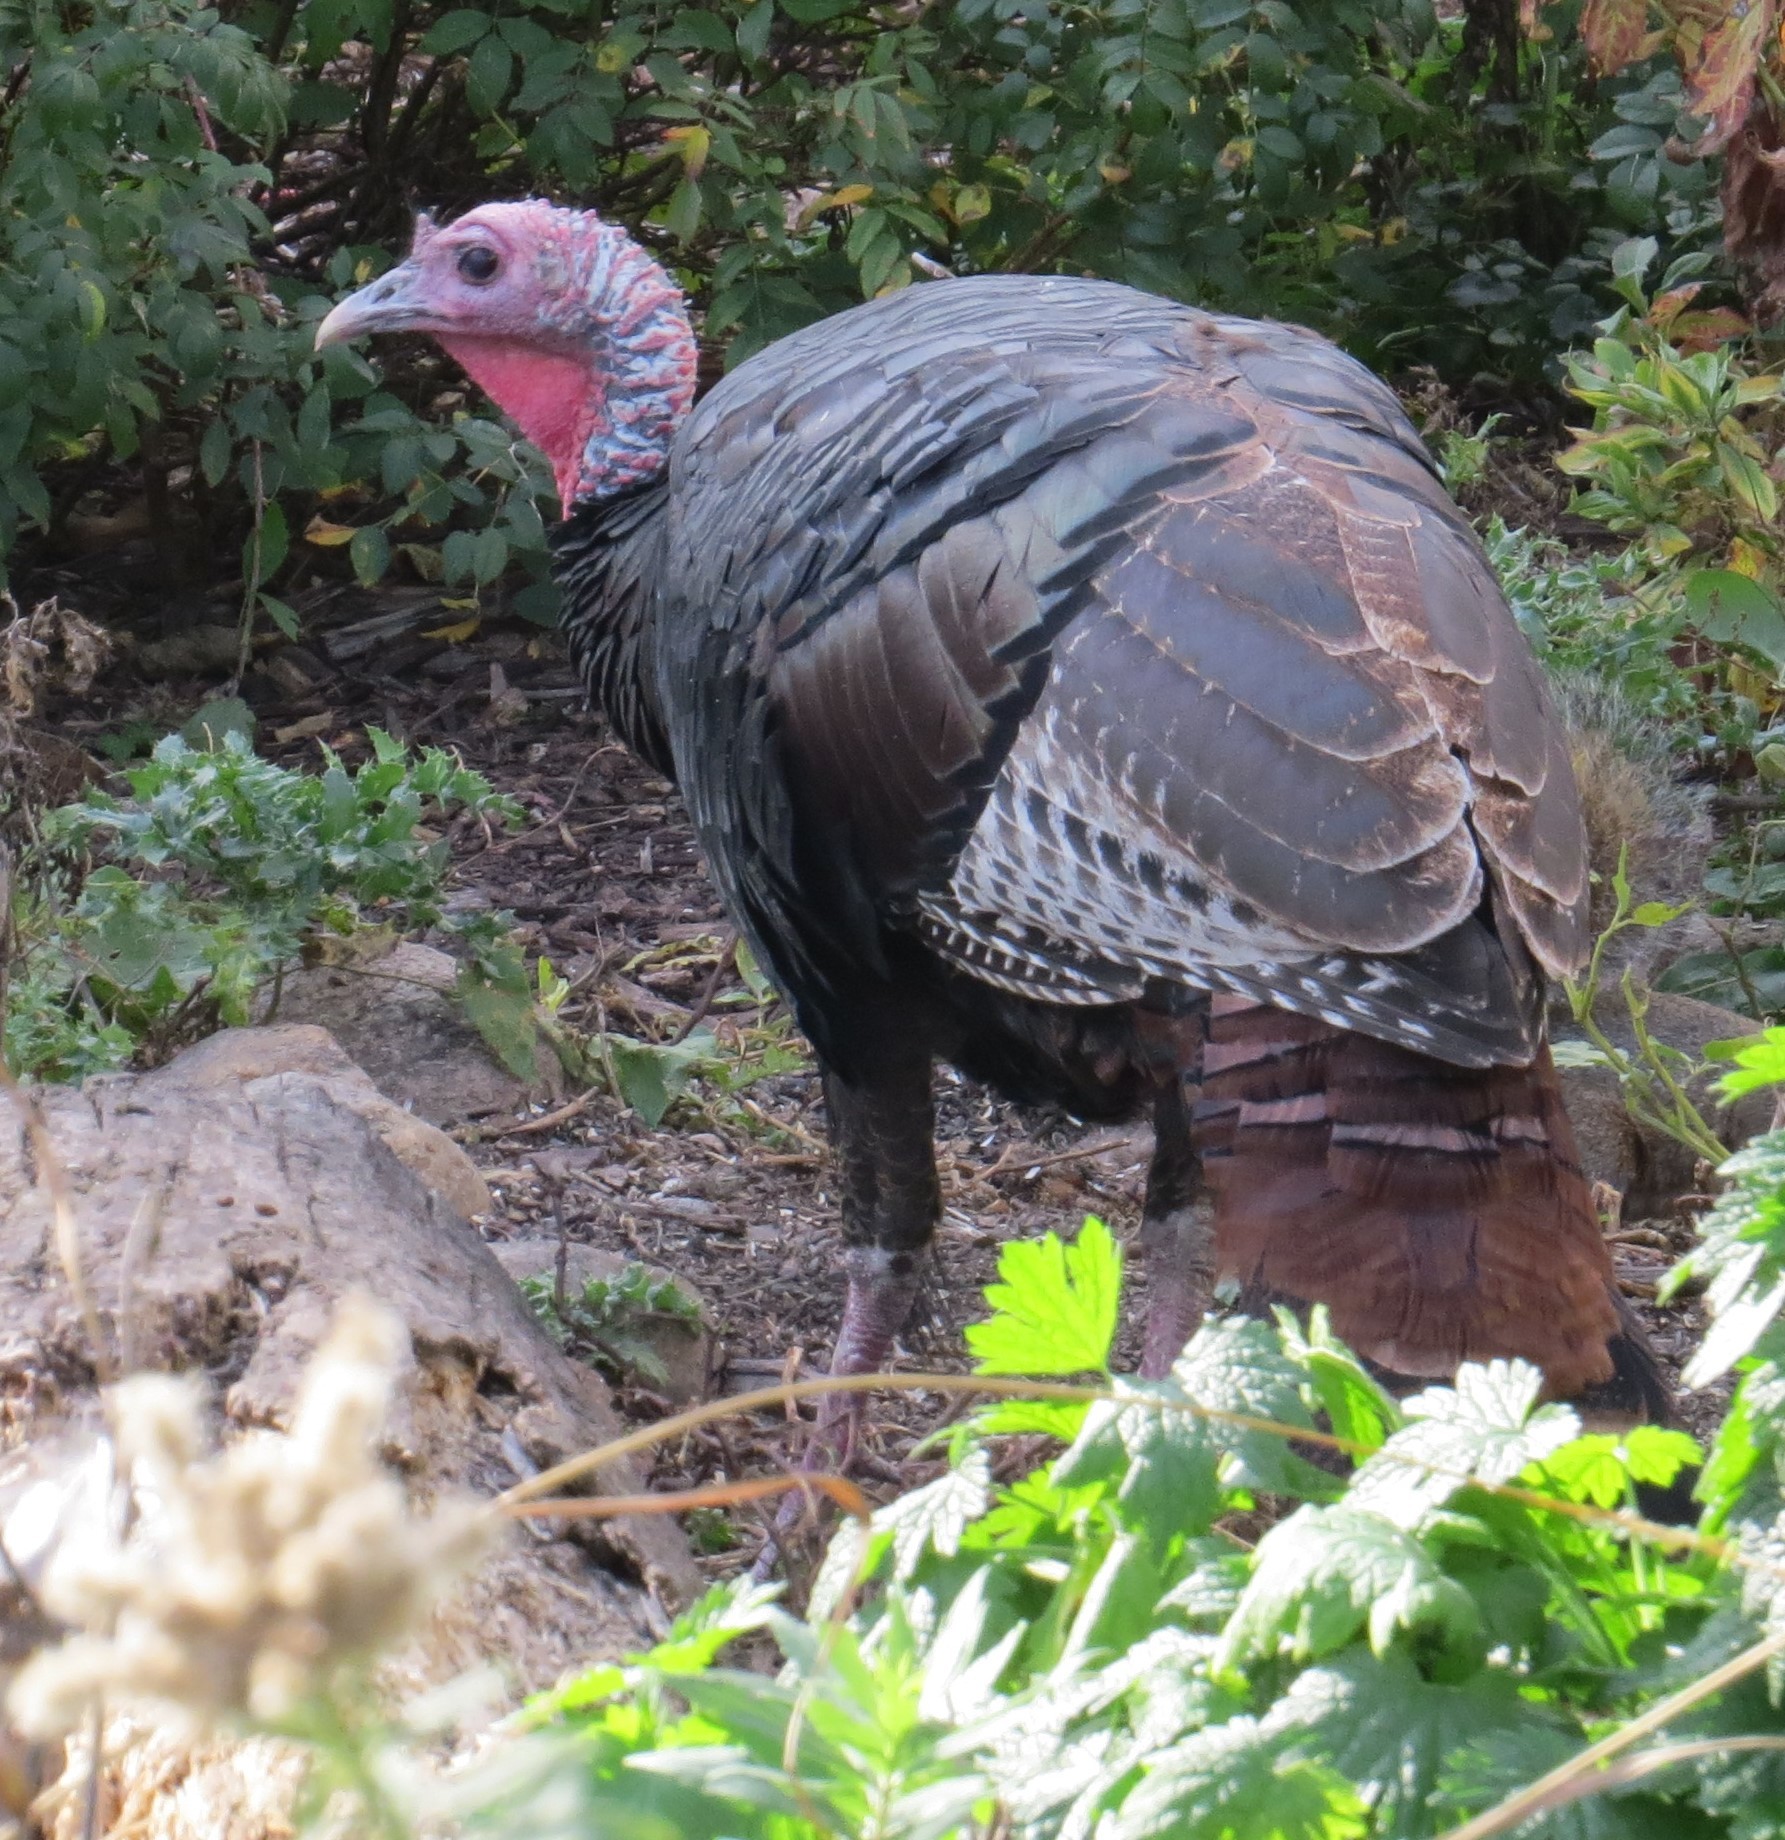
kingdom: Animalia
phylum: Chordata
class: Aves
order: Galliformes
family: Phasianidae
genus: Meleagris
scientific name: Meleagris gallopavo
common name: Wild turkey
